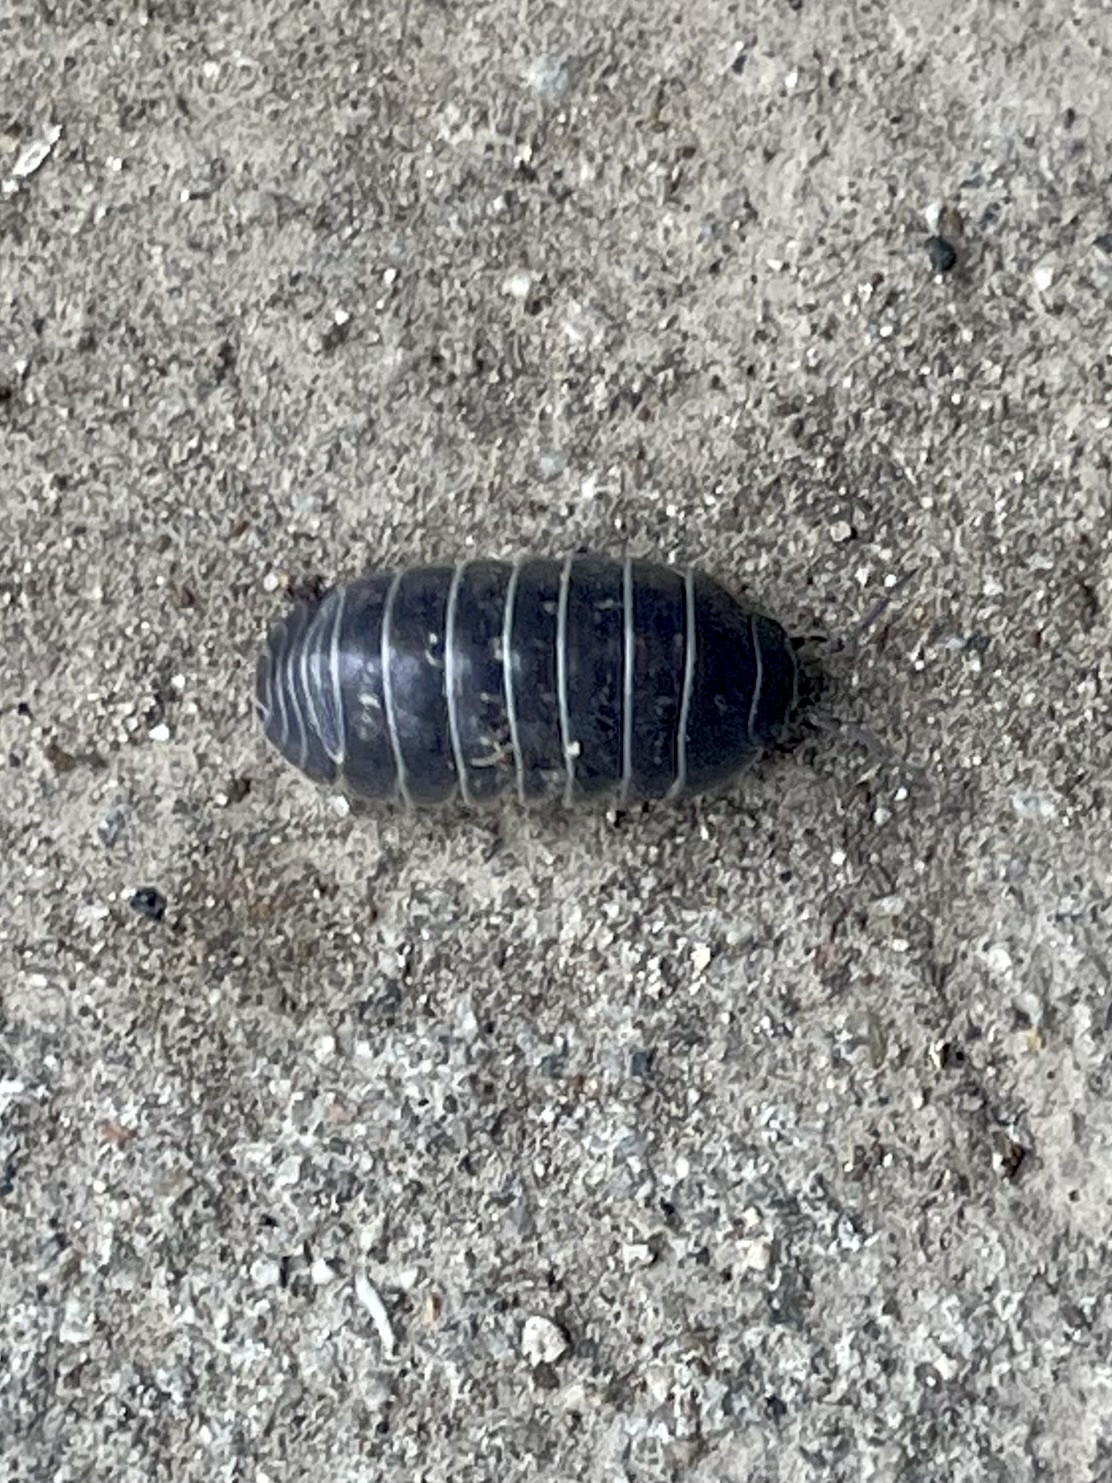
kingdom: Animalia
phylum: Arthropoda
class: Malacostraca
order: Isopoda
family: Armadillidiidae
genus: Armadillidium
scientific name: Armadillidium vulgare
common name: Common pill woodlouse
